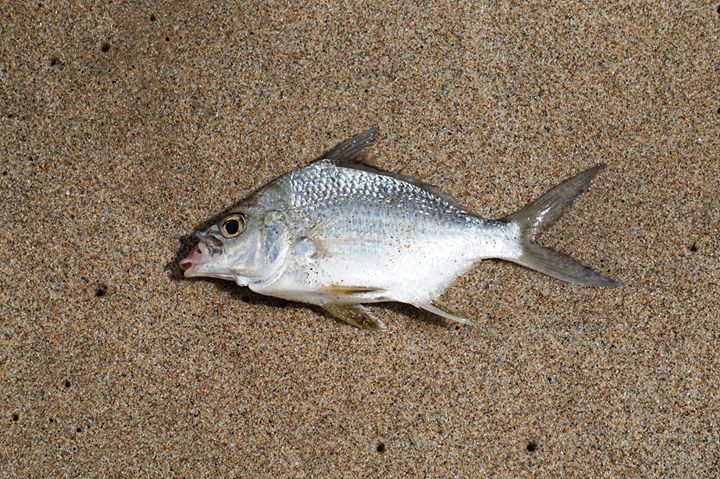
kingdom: Animalia
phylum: Chordata
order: Perciformes
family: Gerreidae
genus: Diapterus
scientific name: Diapterus auratus
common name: Broad shad
